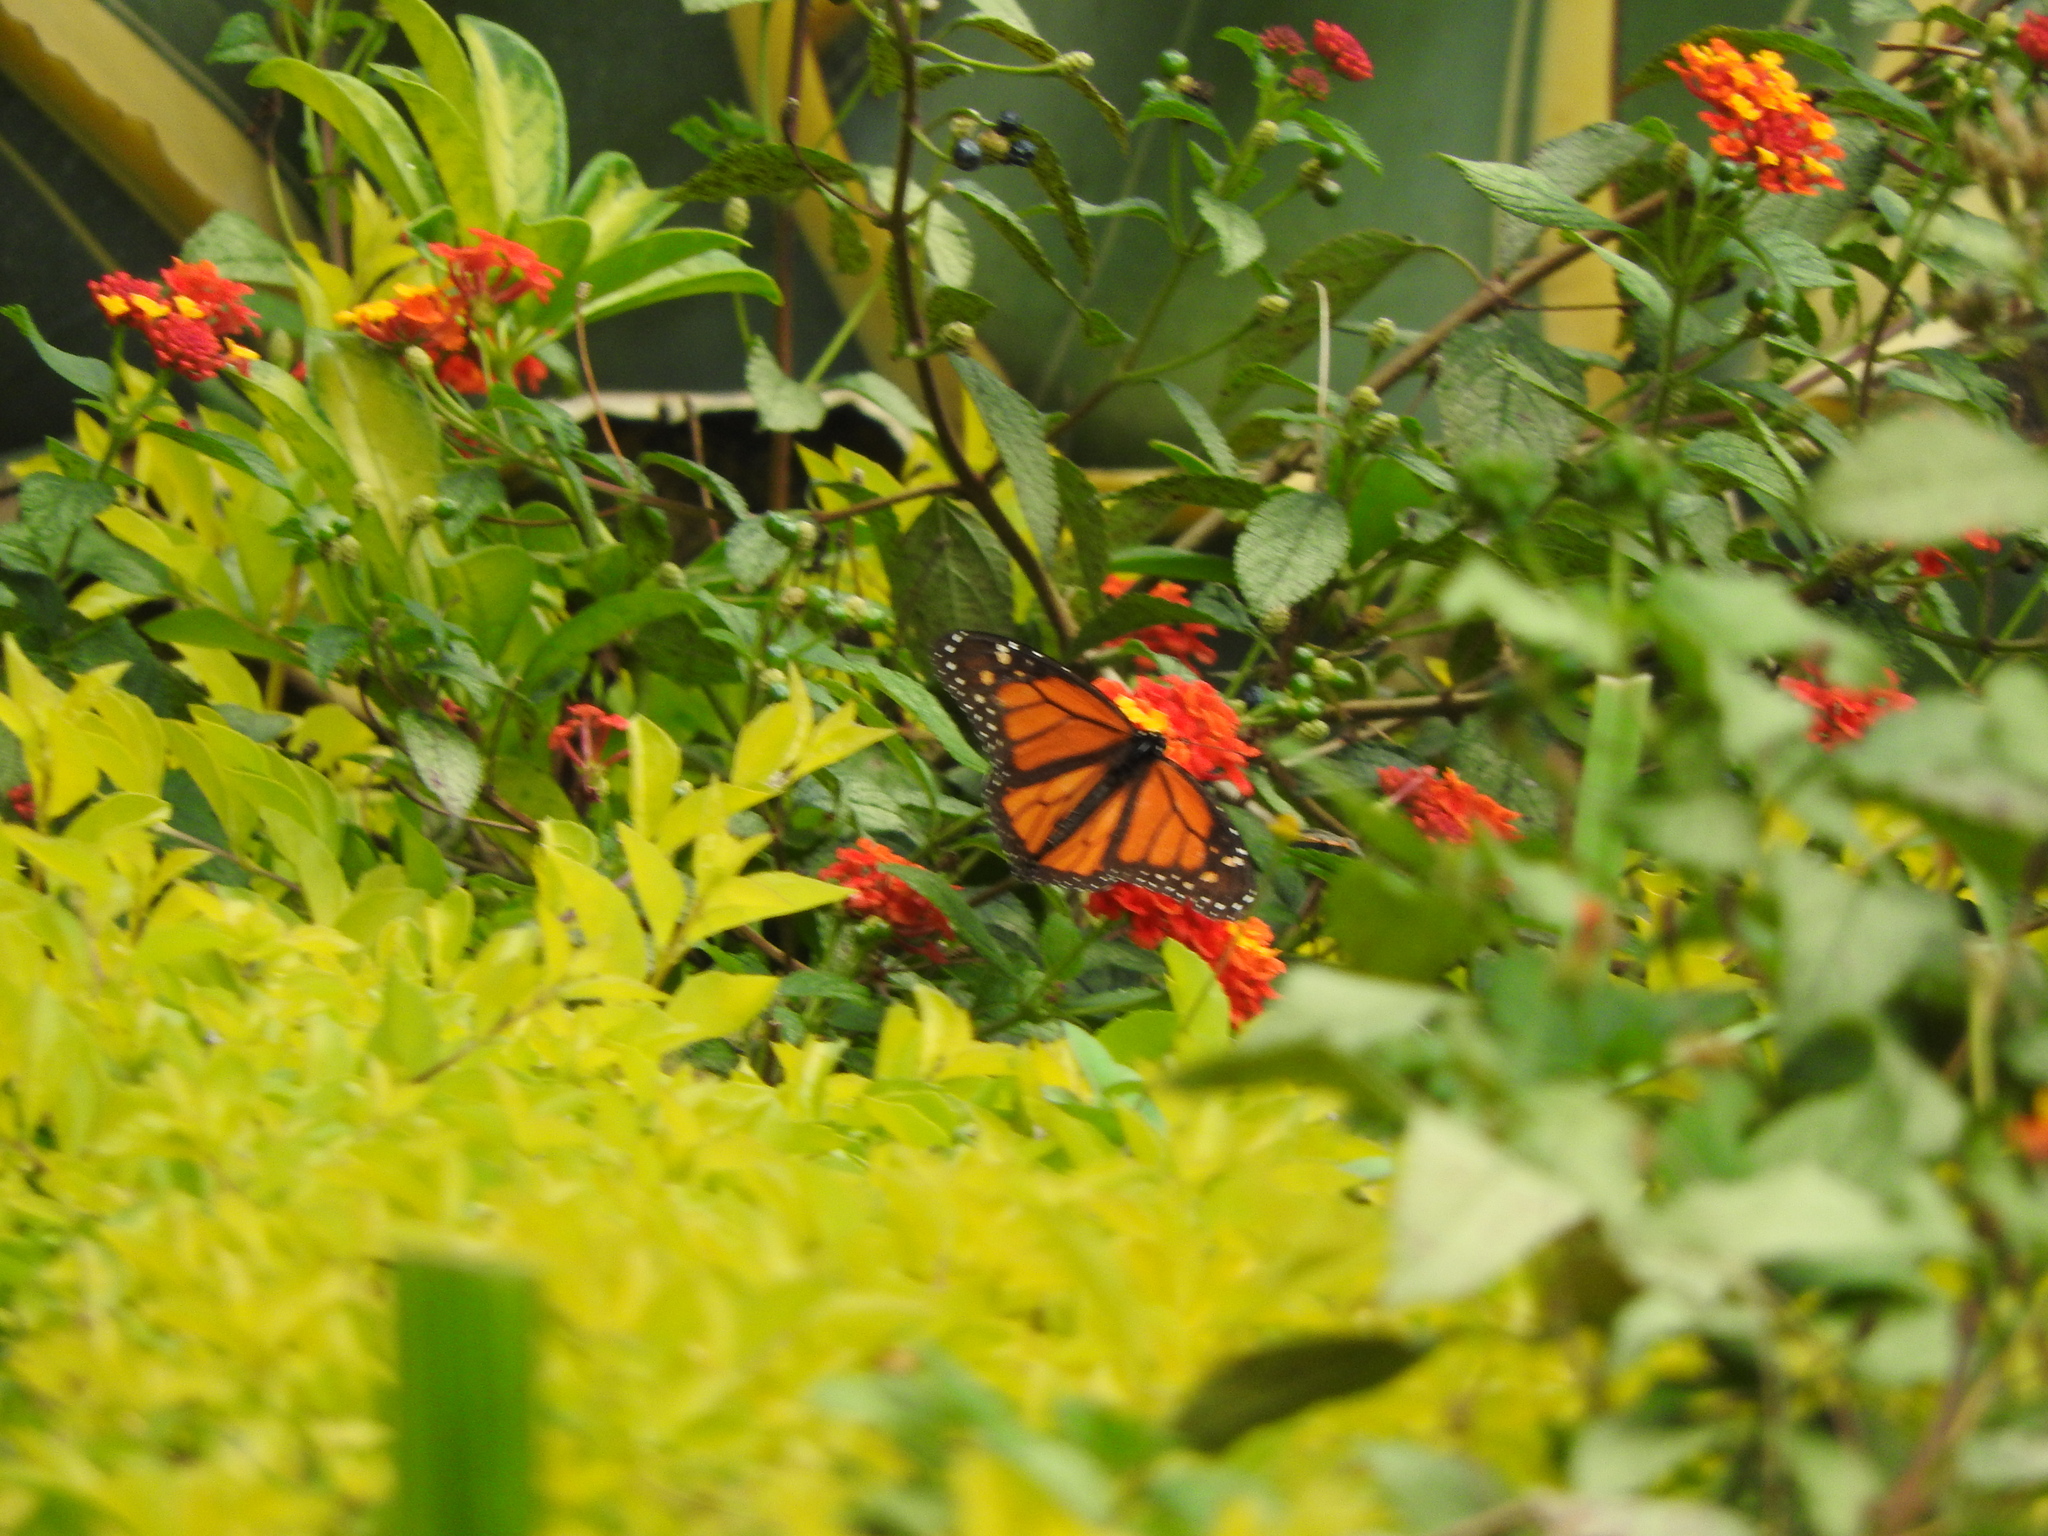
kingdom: Animalia
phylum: Arthropoda
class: Insecta
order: Lepidoptera
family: Nymphalidae
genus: Danaus
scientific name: Danaus plexippus
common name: Monarch
